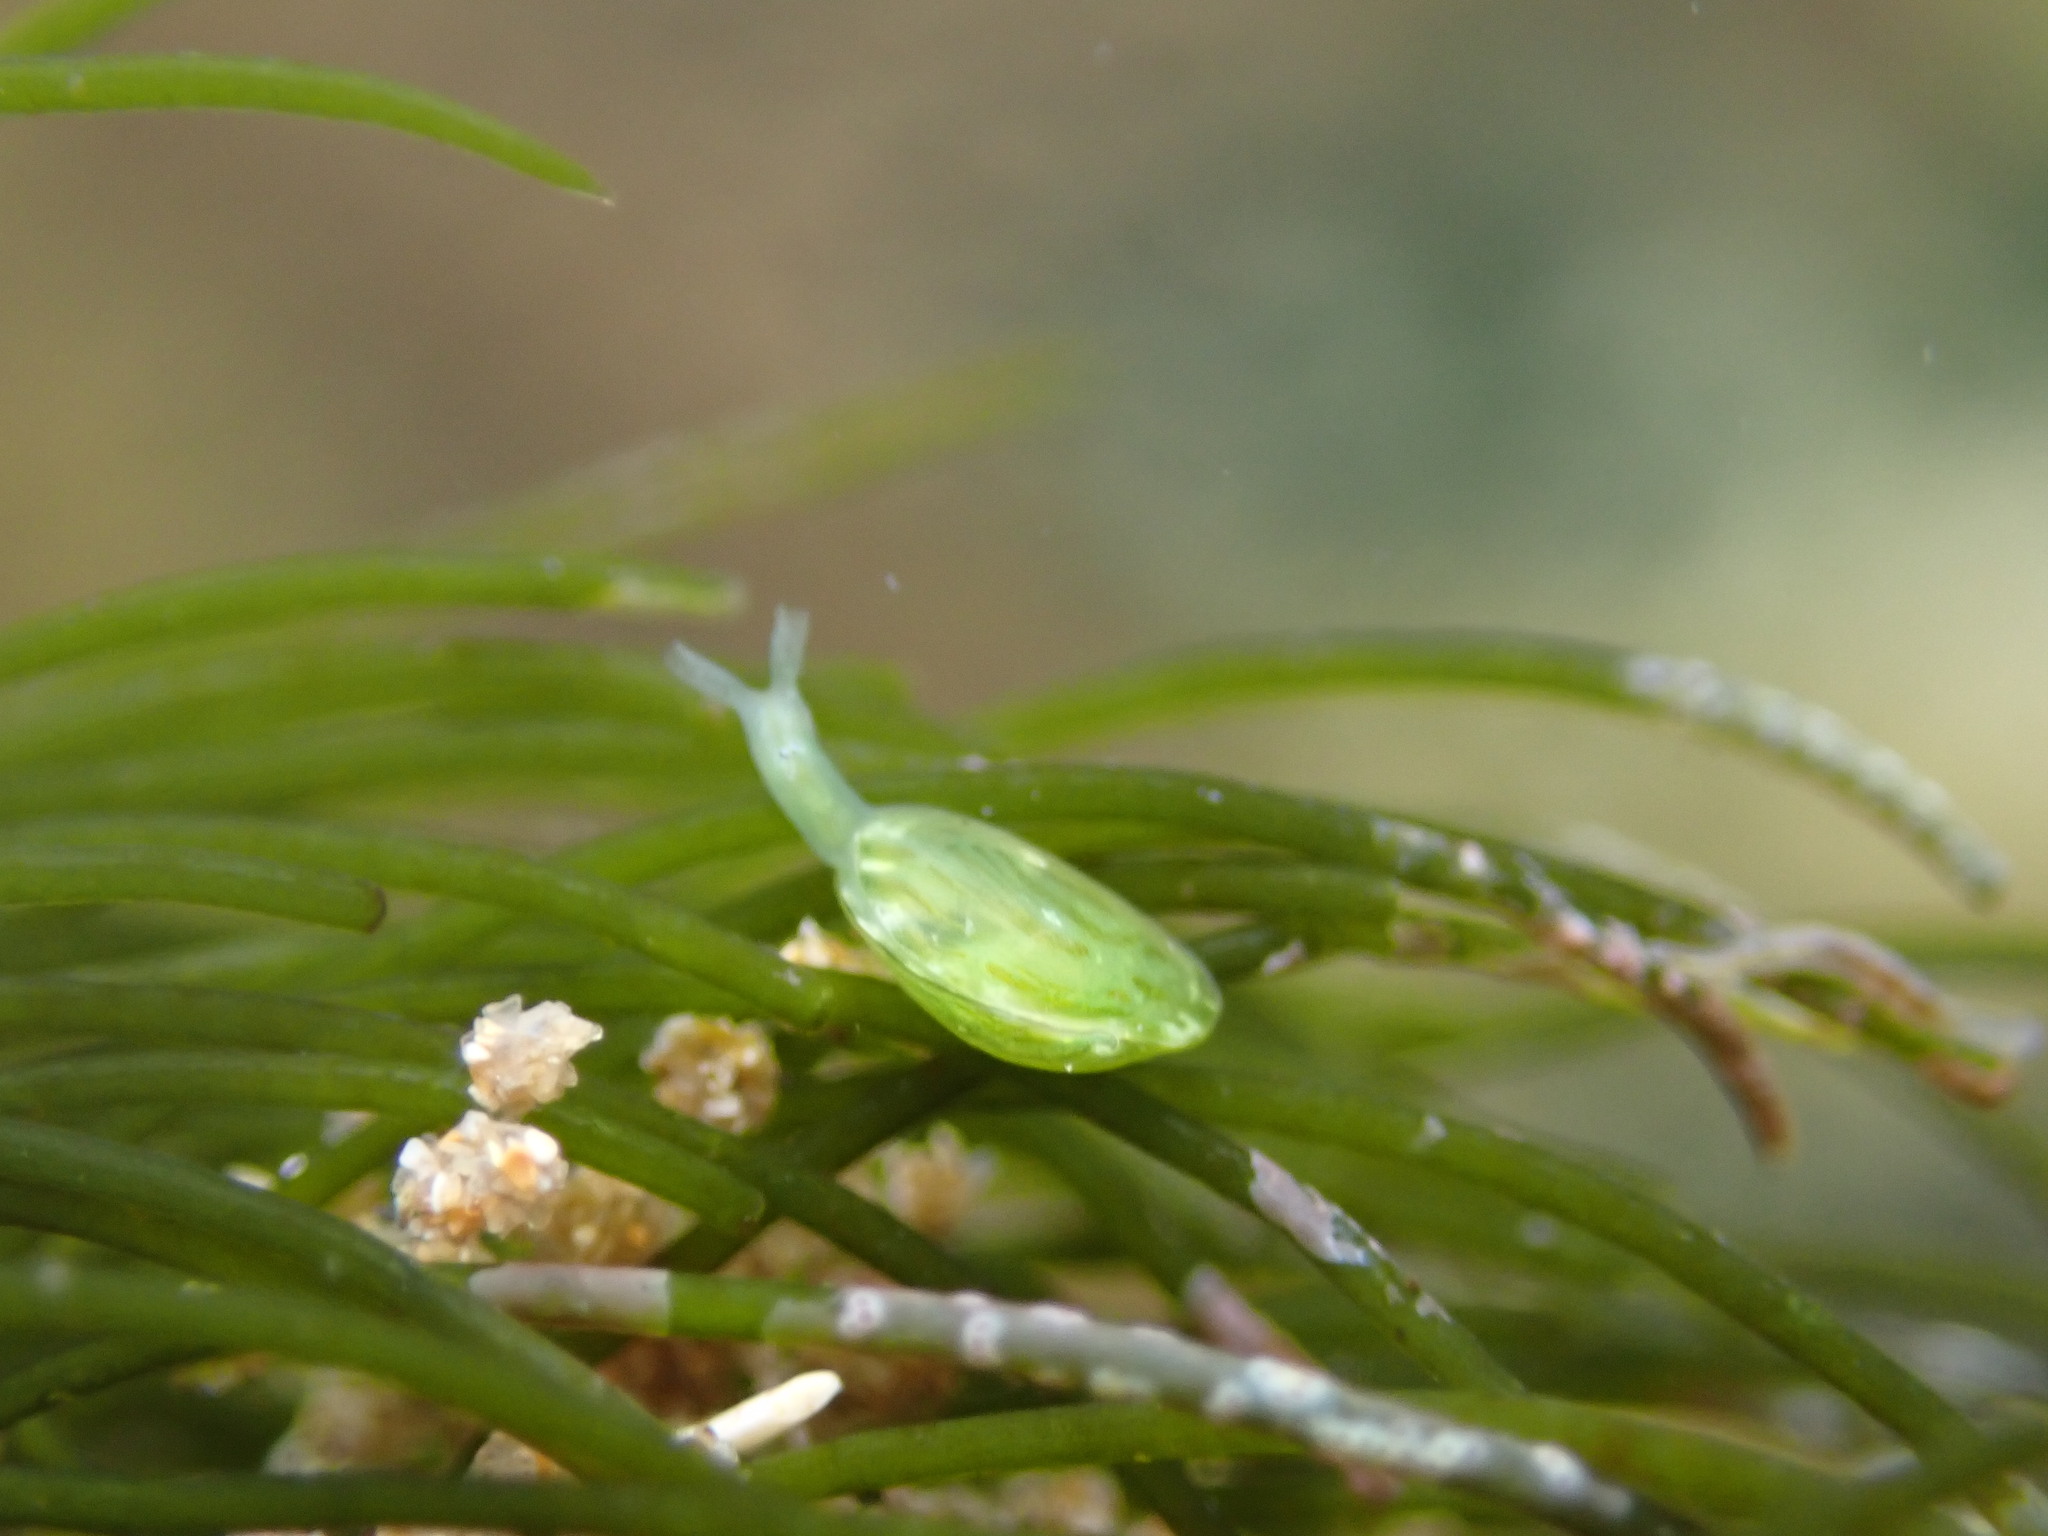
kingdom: Animalia
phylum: Mollusca
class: Gastropoda
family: Juliidae
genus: Berthelinia
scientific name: Berthelinia typica
